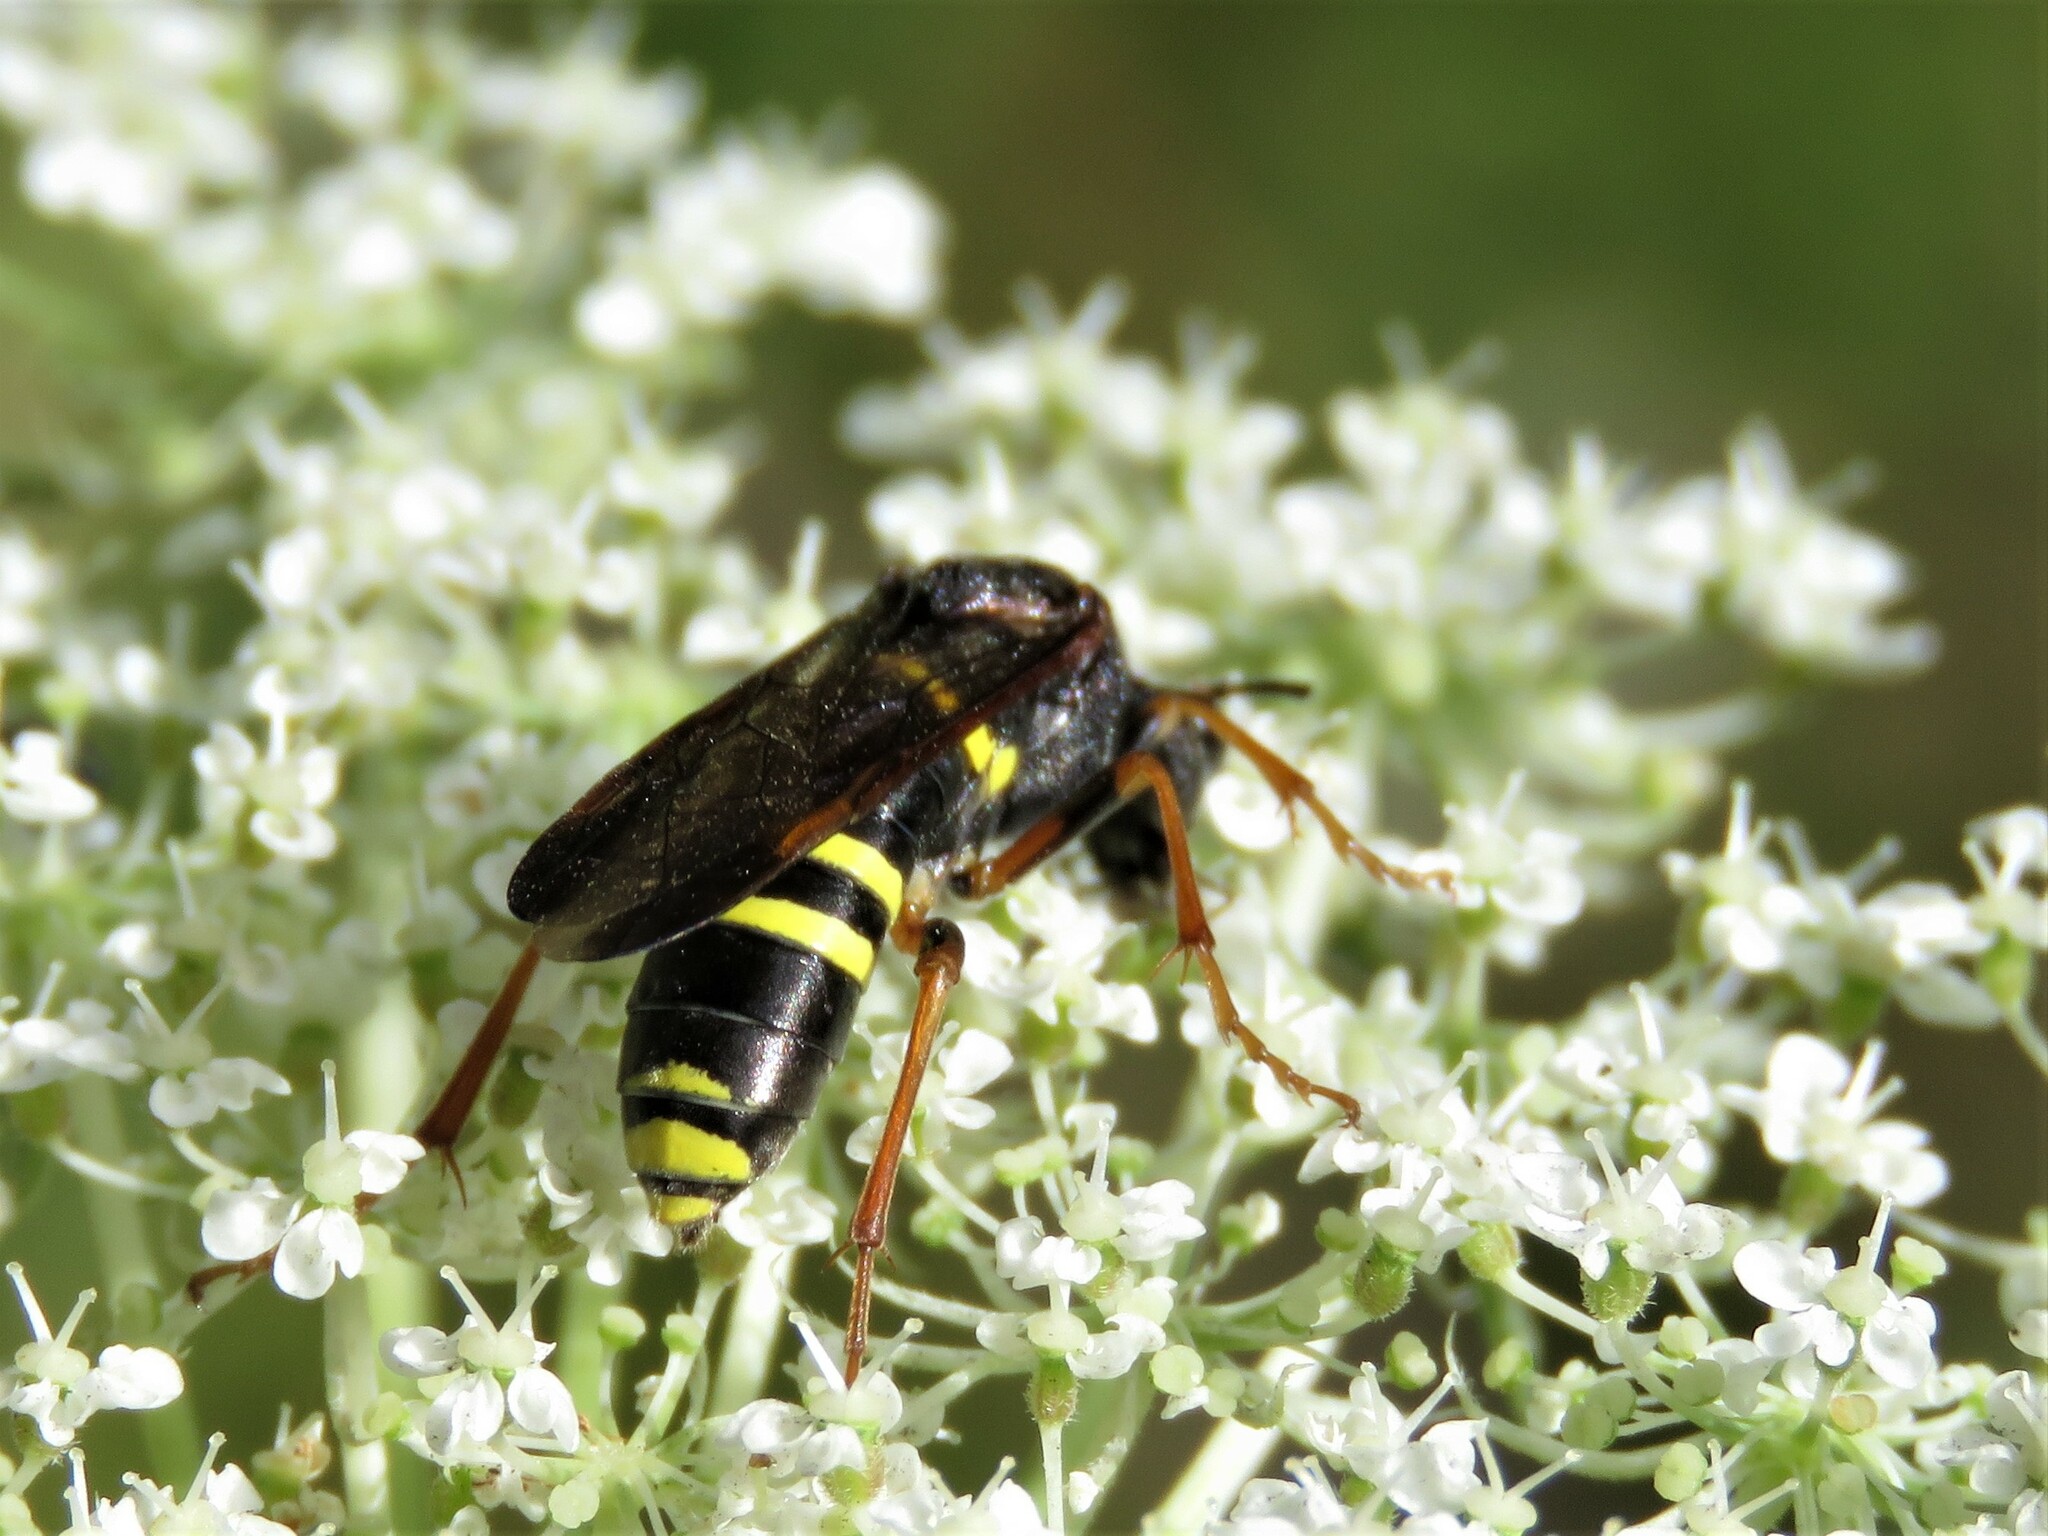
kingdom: Animalia
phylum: Arthropoda
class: Insecta
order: Hymenoptera
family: Tenthredinidae
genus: Tenthredo
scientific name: Tenthredo vespa
